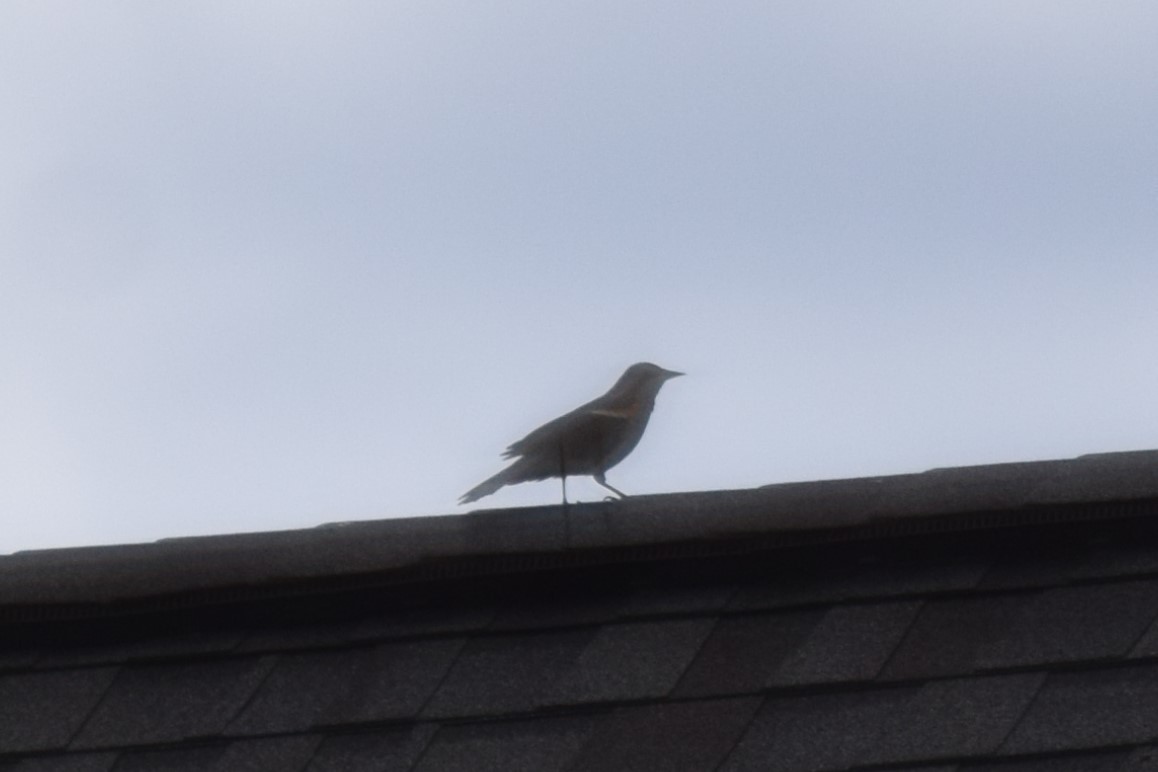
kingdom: Animalia
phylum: Chordata
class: Aves
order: Passeriformes
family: Icteridae
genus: Agelaius
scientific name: Agelaius phoeniceus
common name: Red-winged blackbird
